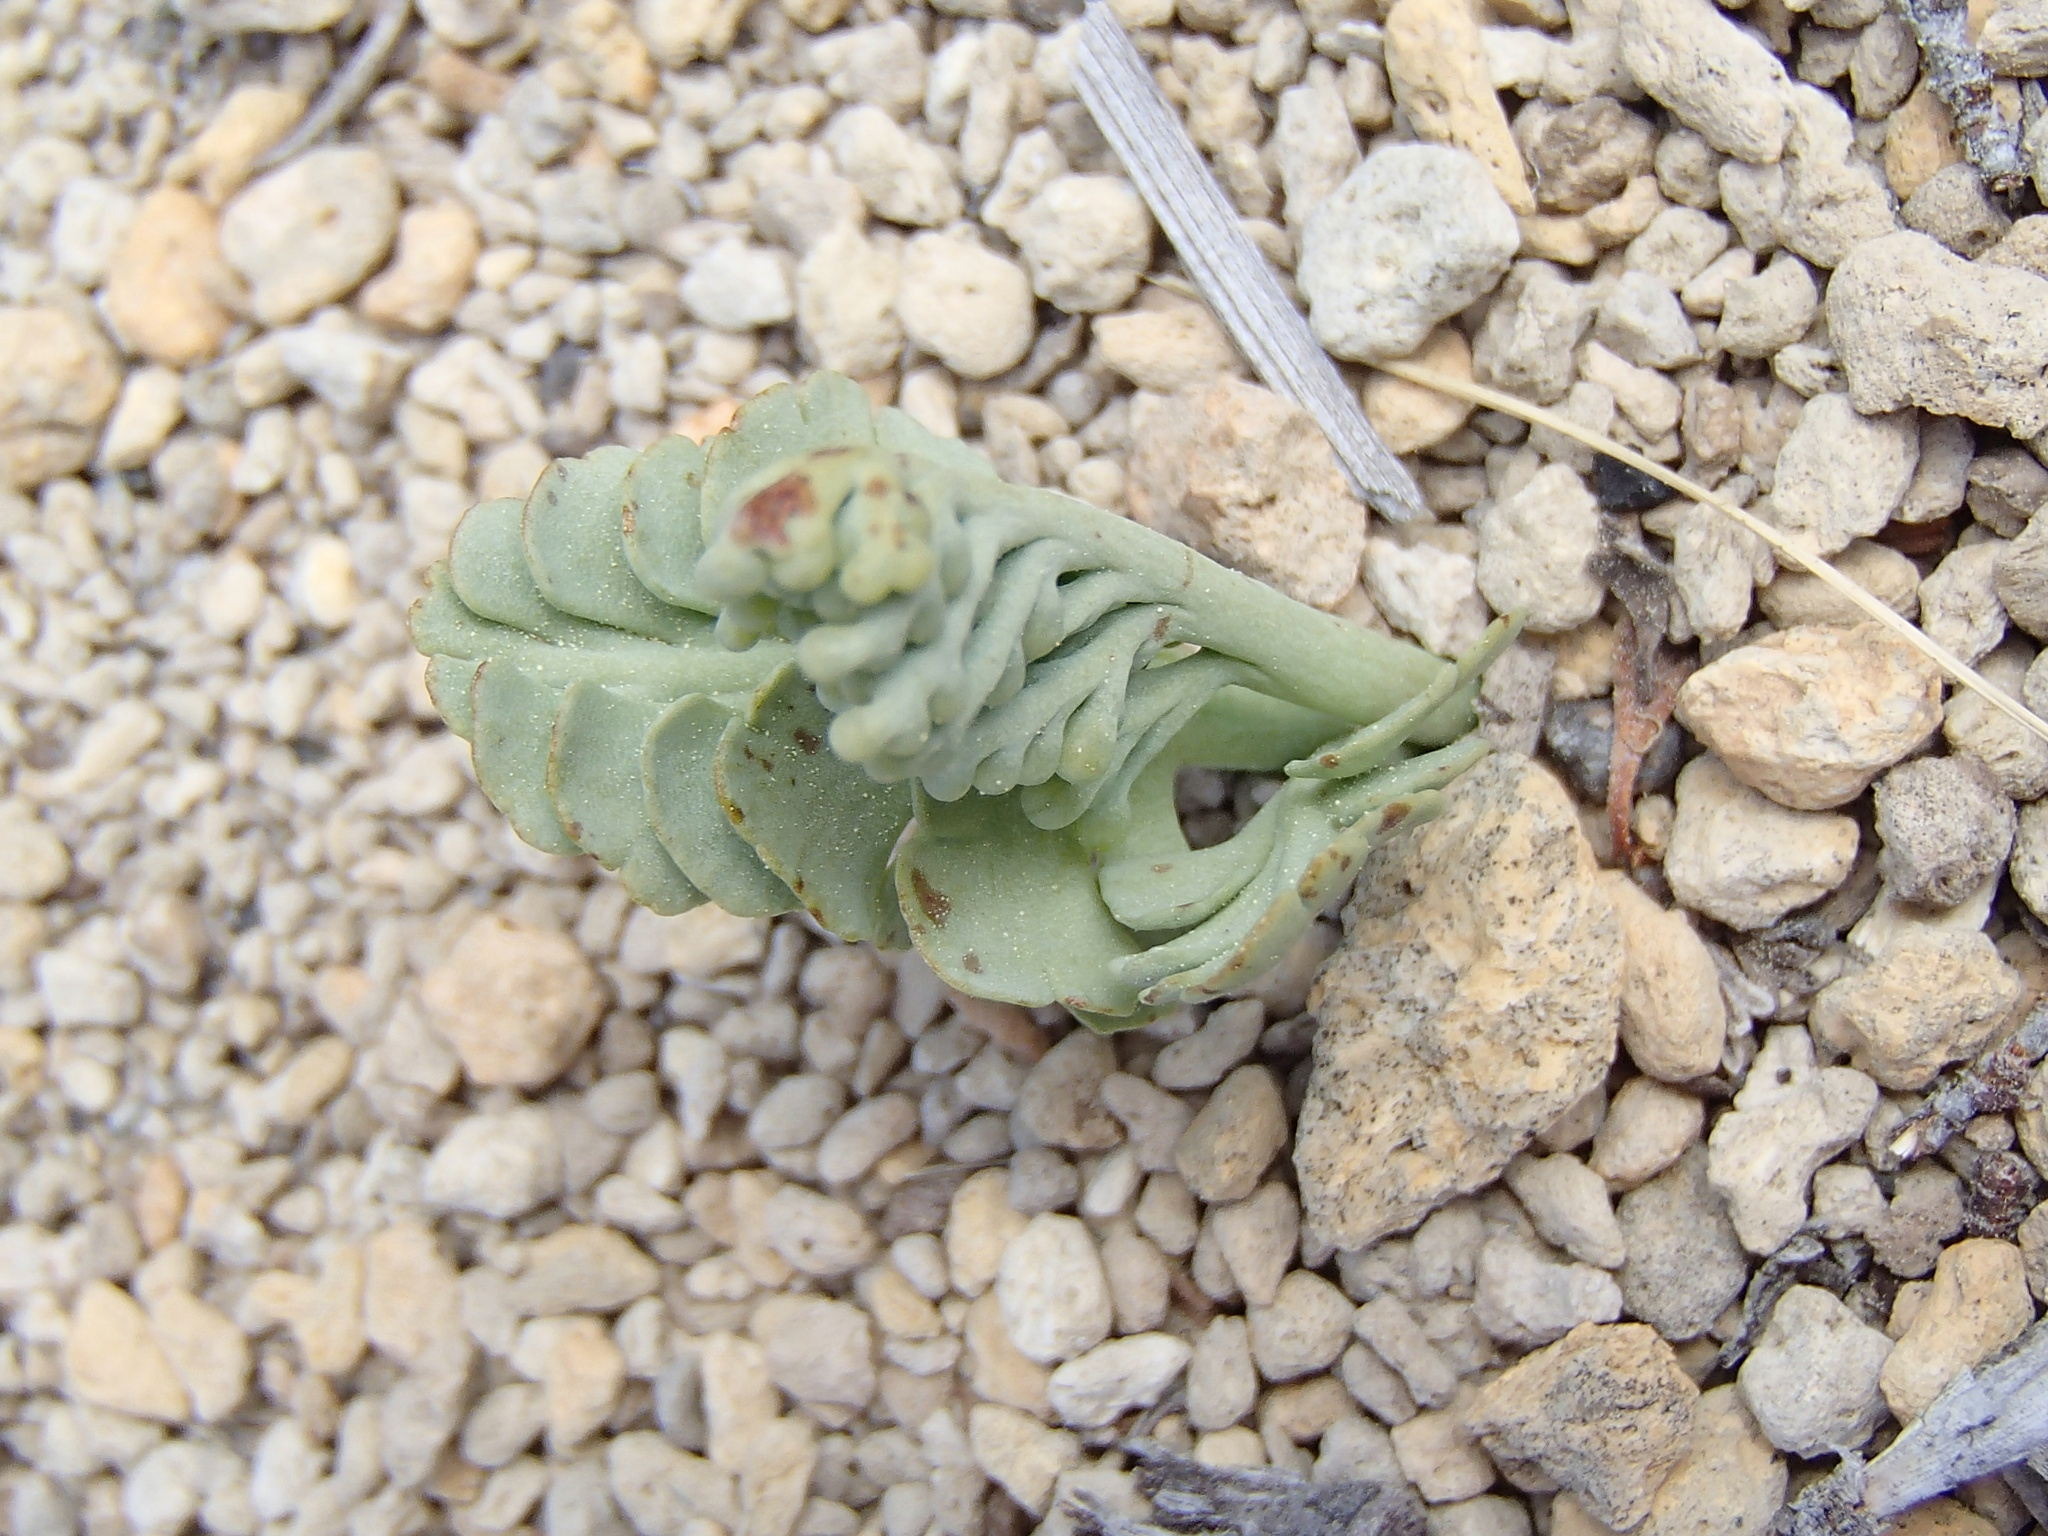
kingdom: Plantae
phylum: Tracheophyta
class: Polypodiopsida
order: Ophioglossales
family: Ophioglossaceae
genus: Botrychium
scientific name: Botrychium pumicola
